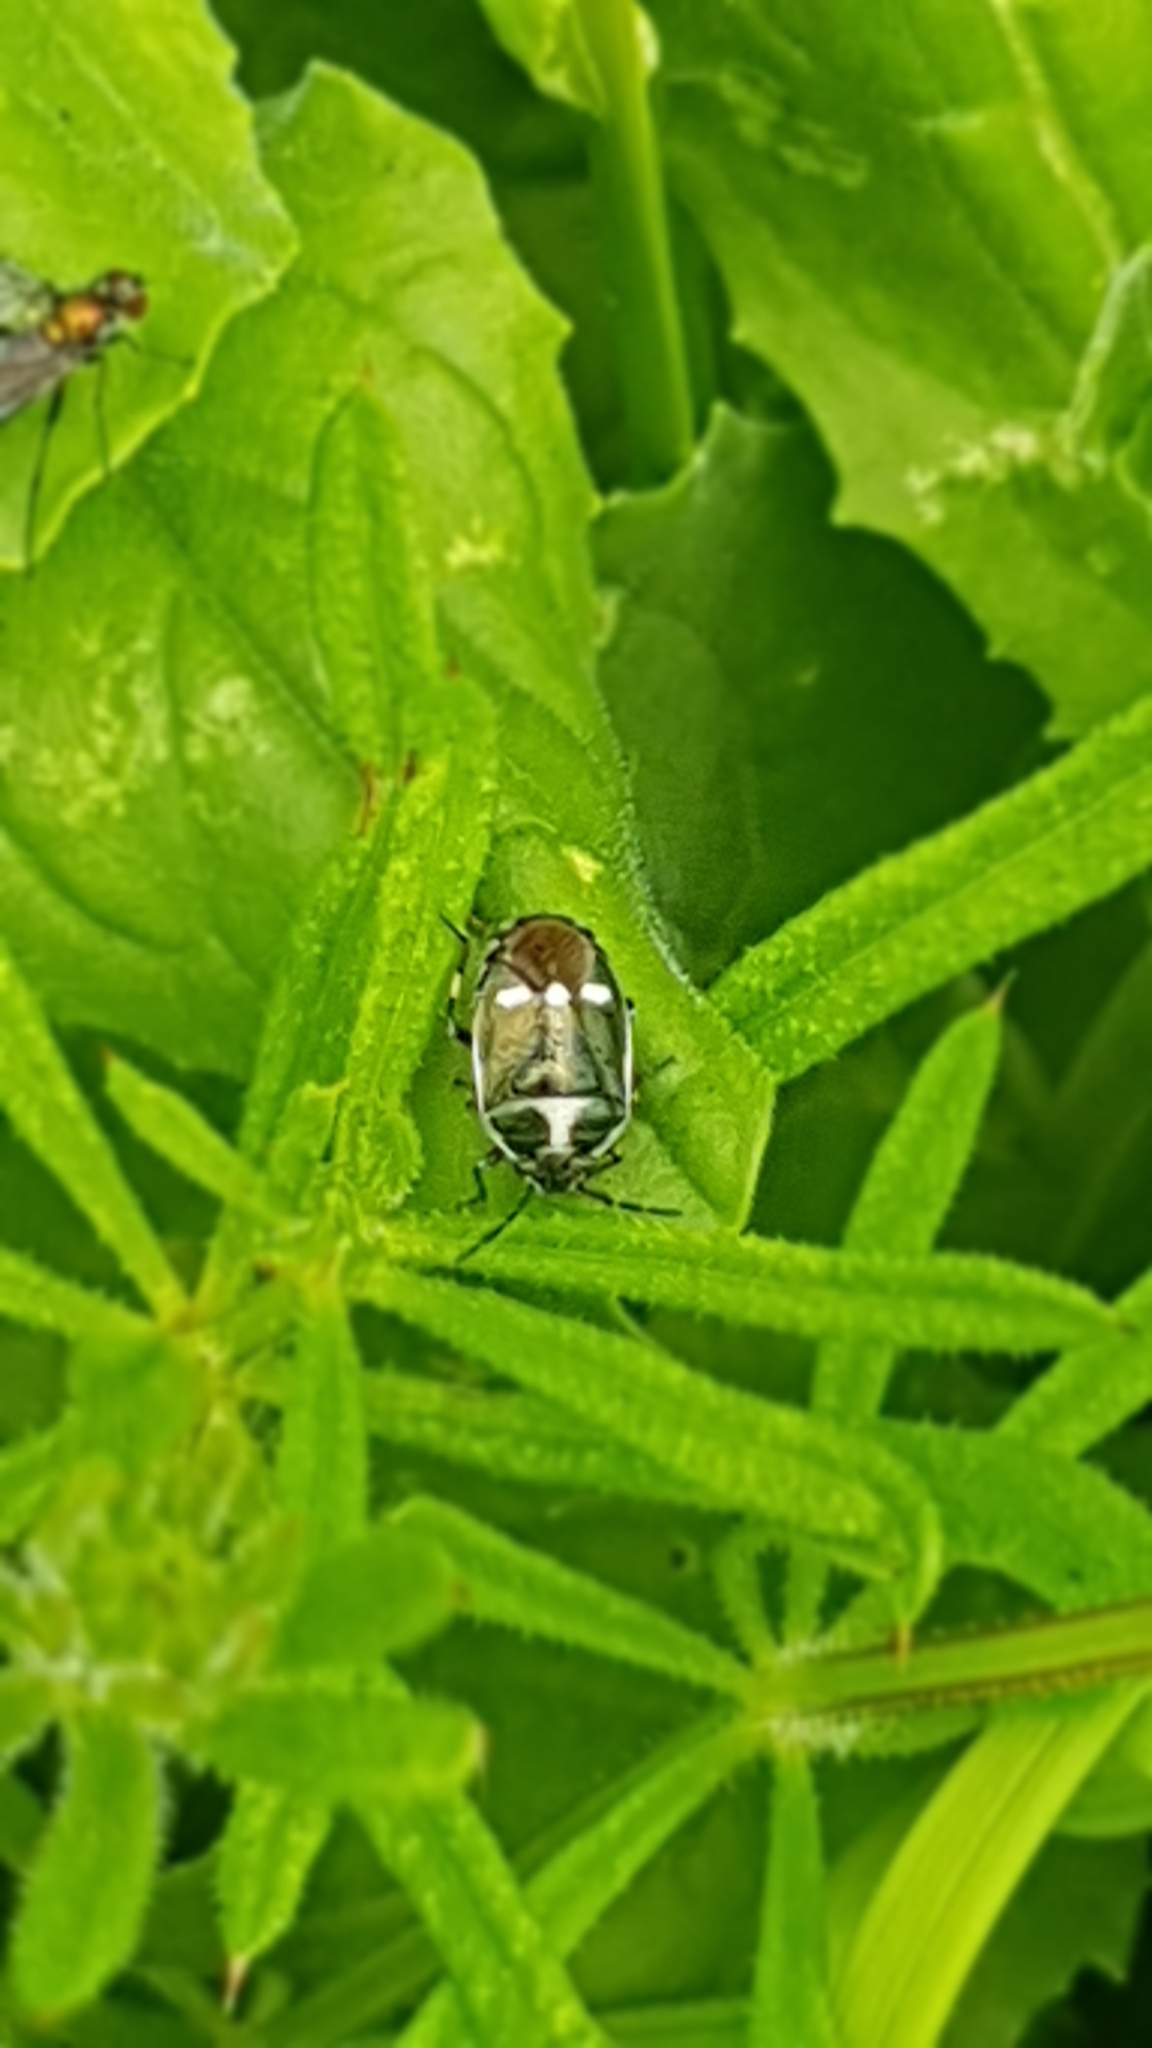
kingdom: Animalia
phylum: Arthropoda
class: Insecta
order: Hemiptera
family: Pentatomidae
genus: Eurydema
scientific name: Eurydema oleracea
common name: Cabbage bug
